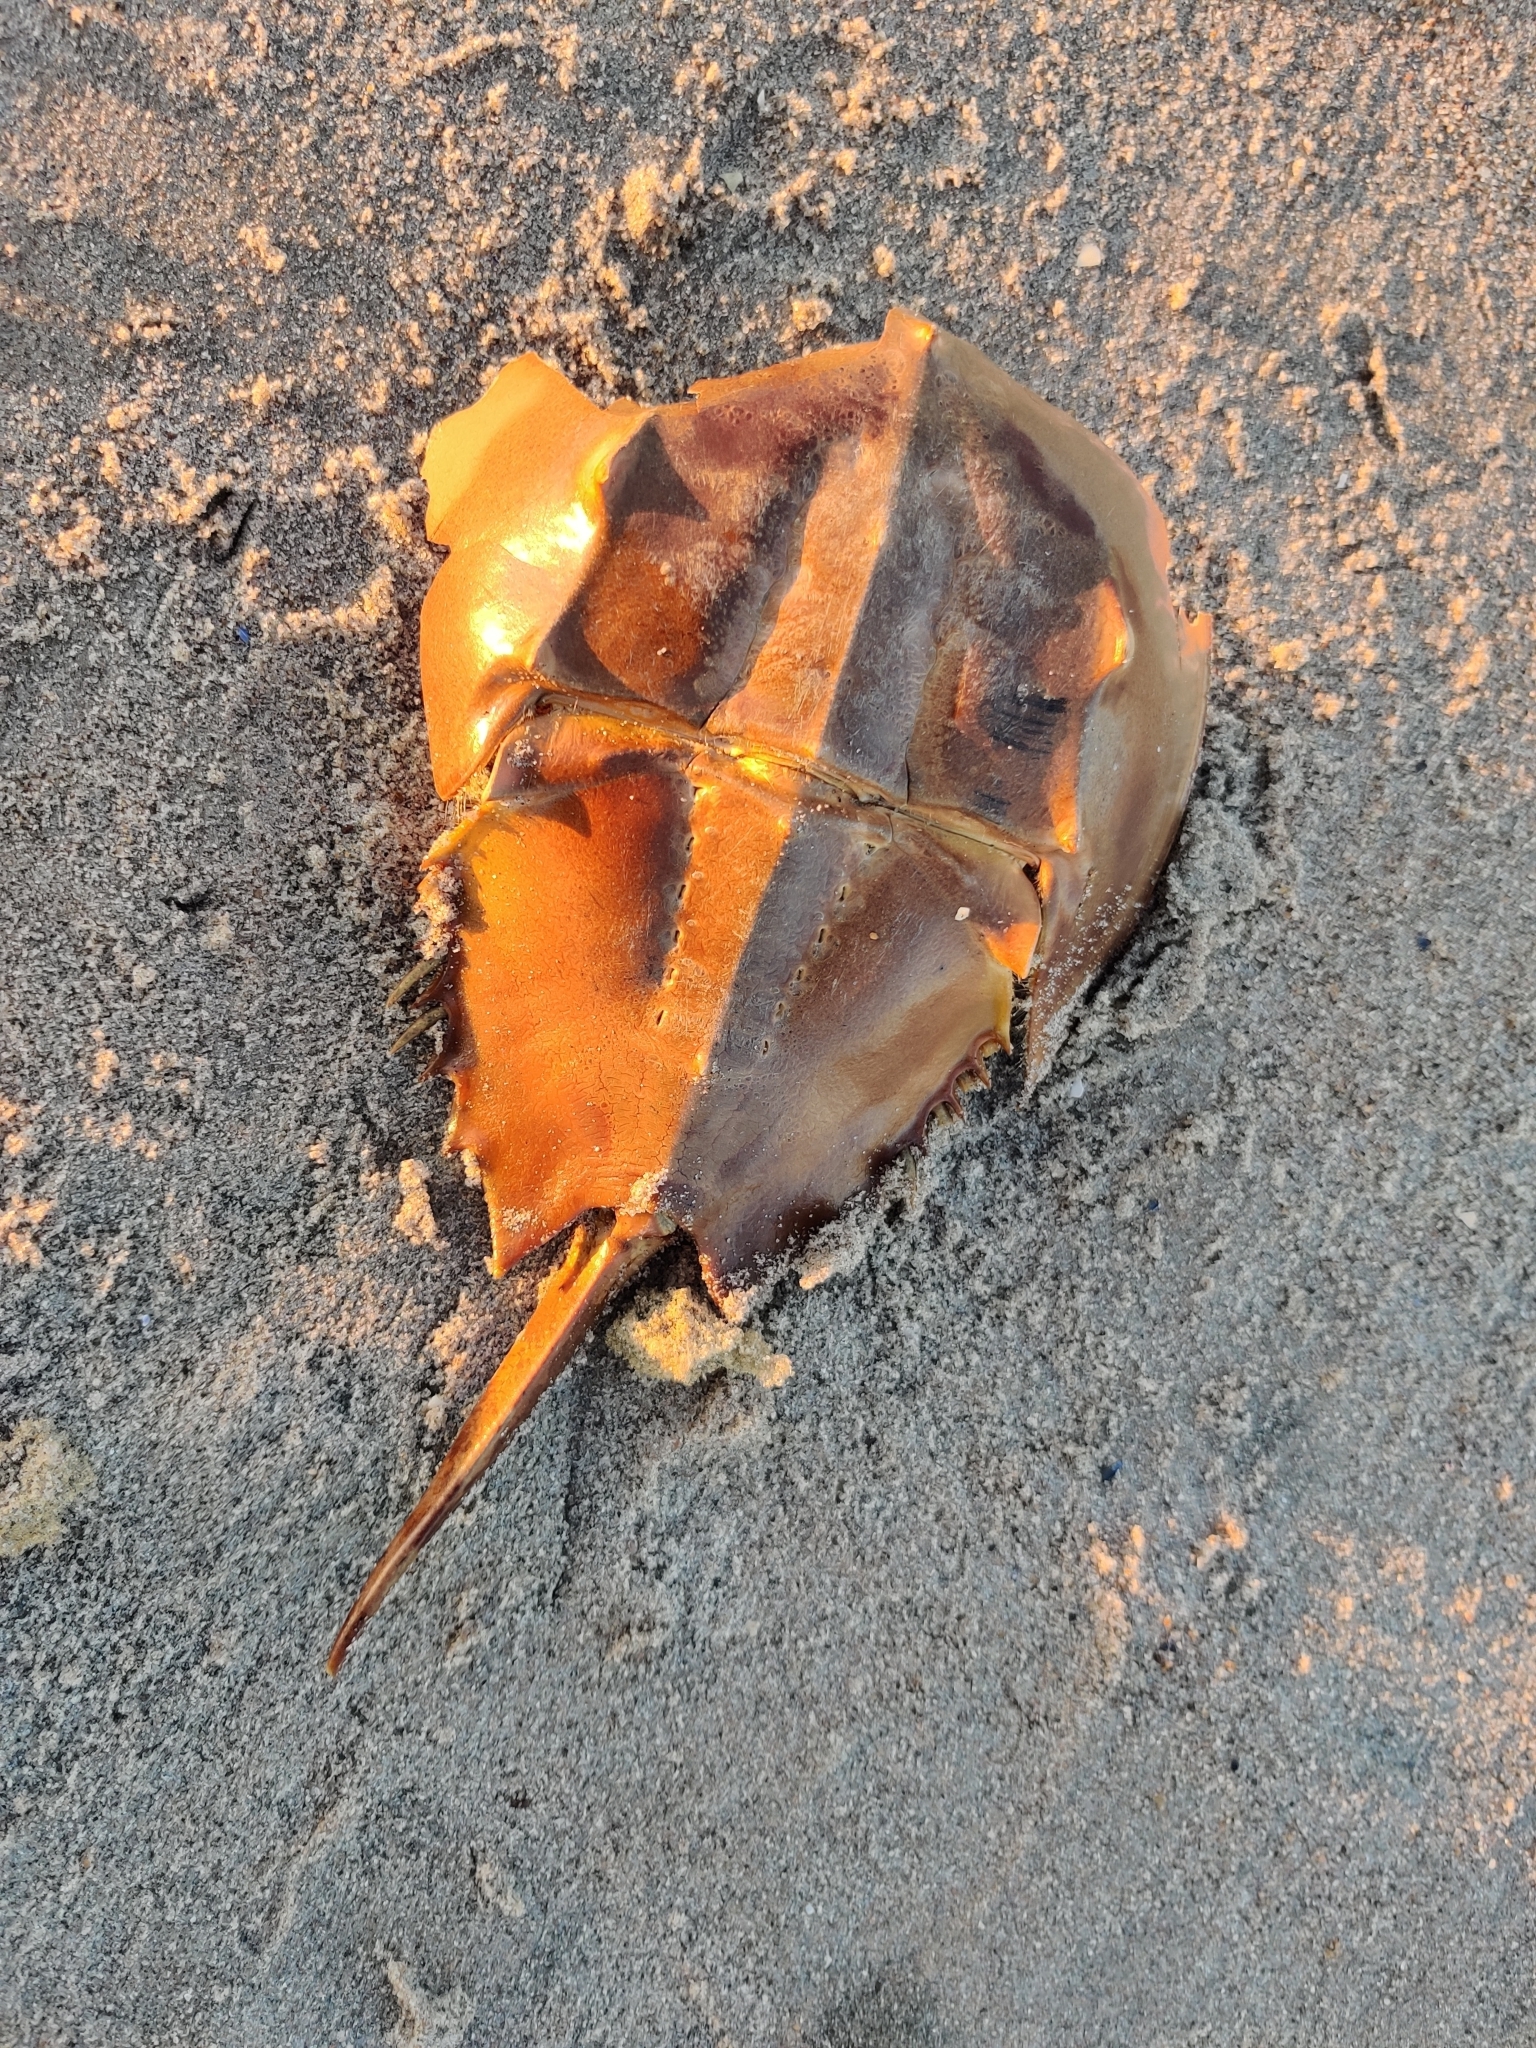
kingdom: Animalia
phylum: Arthropoda
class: Merostomata
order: Xiphosurida
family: Limulidae
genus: Limulus
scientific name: Limulus polyphemus
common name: Horseshoe crab
